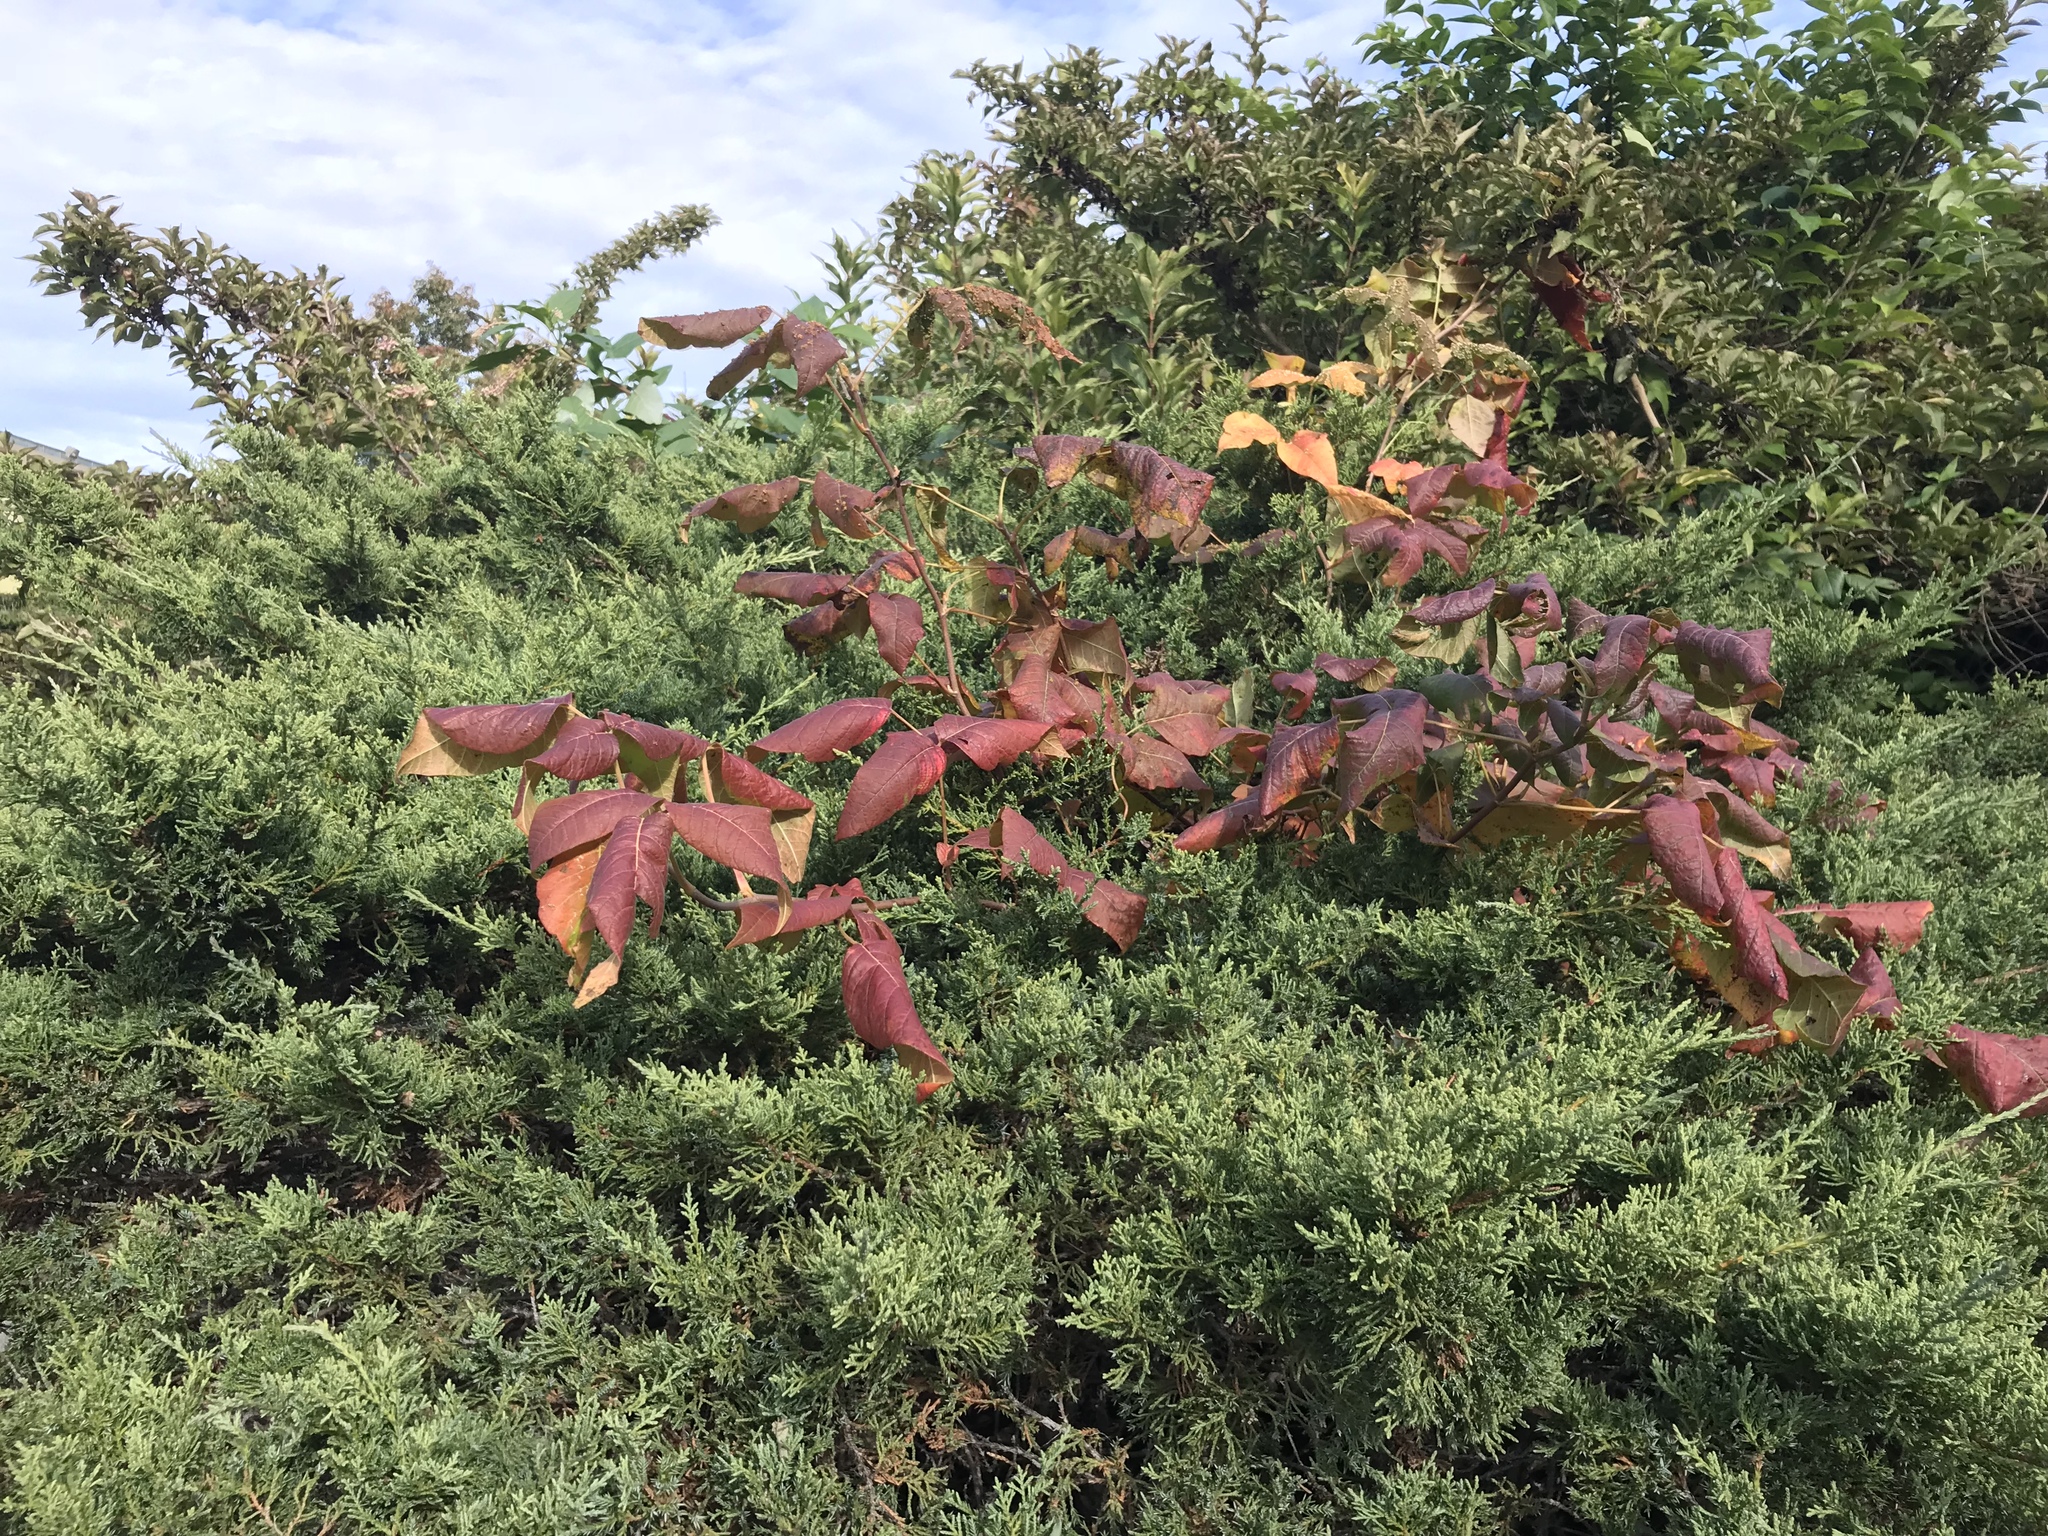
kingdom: Plantae
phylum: Tracheophyta
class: Magnoliopsida
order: Sapindales
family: Anacardiaceae
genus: Toxicodendron
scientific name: Toxicodendron radicans
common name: Poison ivy
